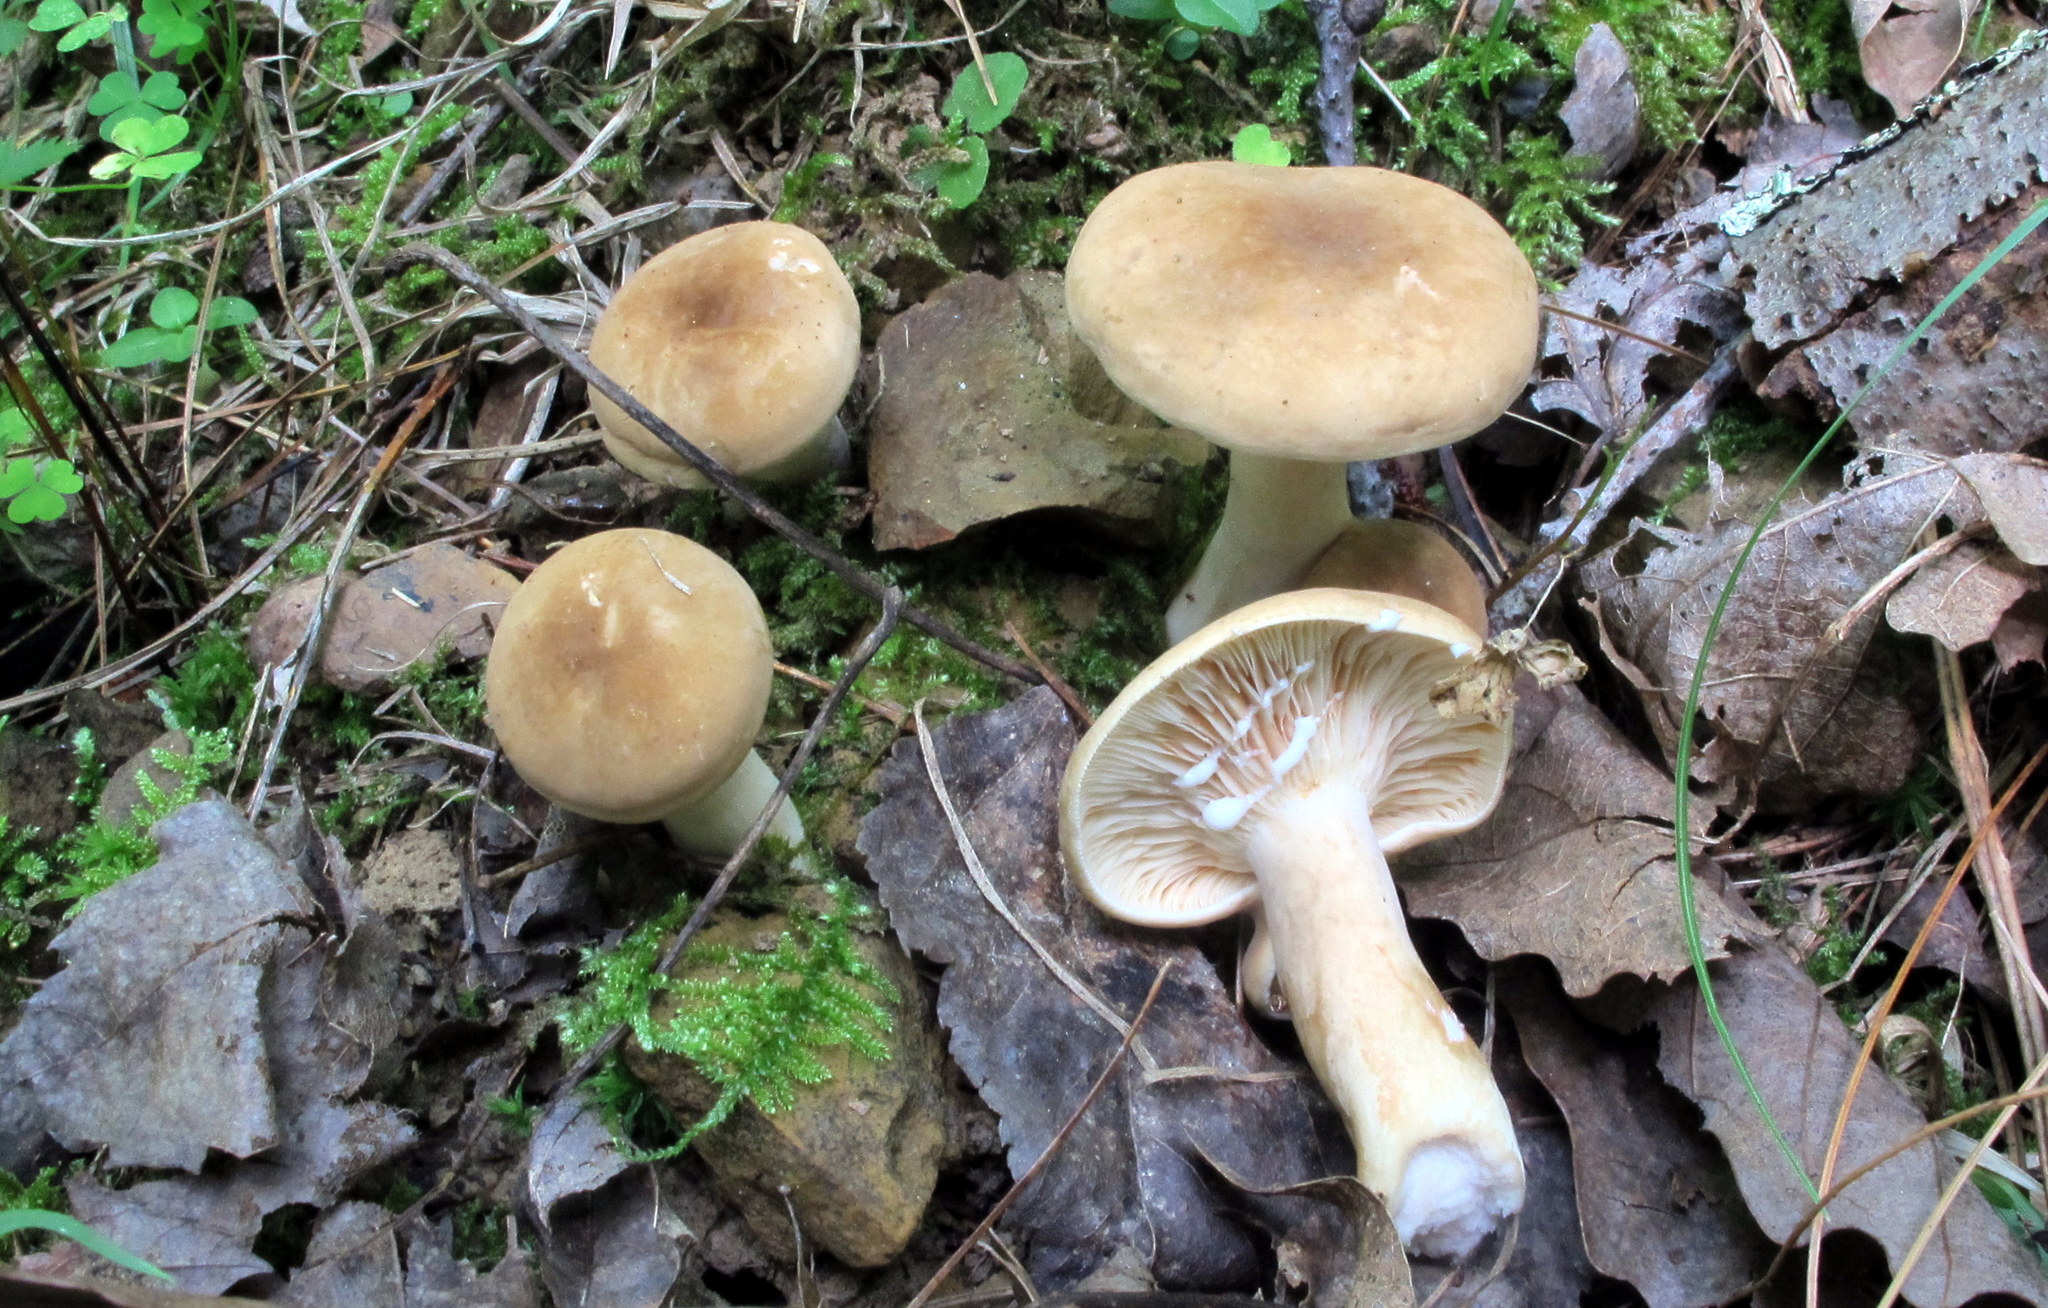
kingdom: Fungi
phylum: Basidiomycota
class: Agaricomycetes
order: Russulales
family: Russulaceae
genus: Lactarius
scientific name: Lactarius fumosus
